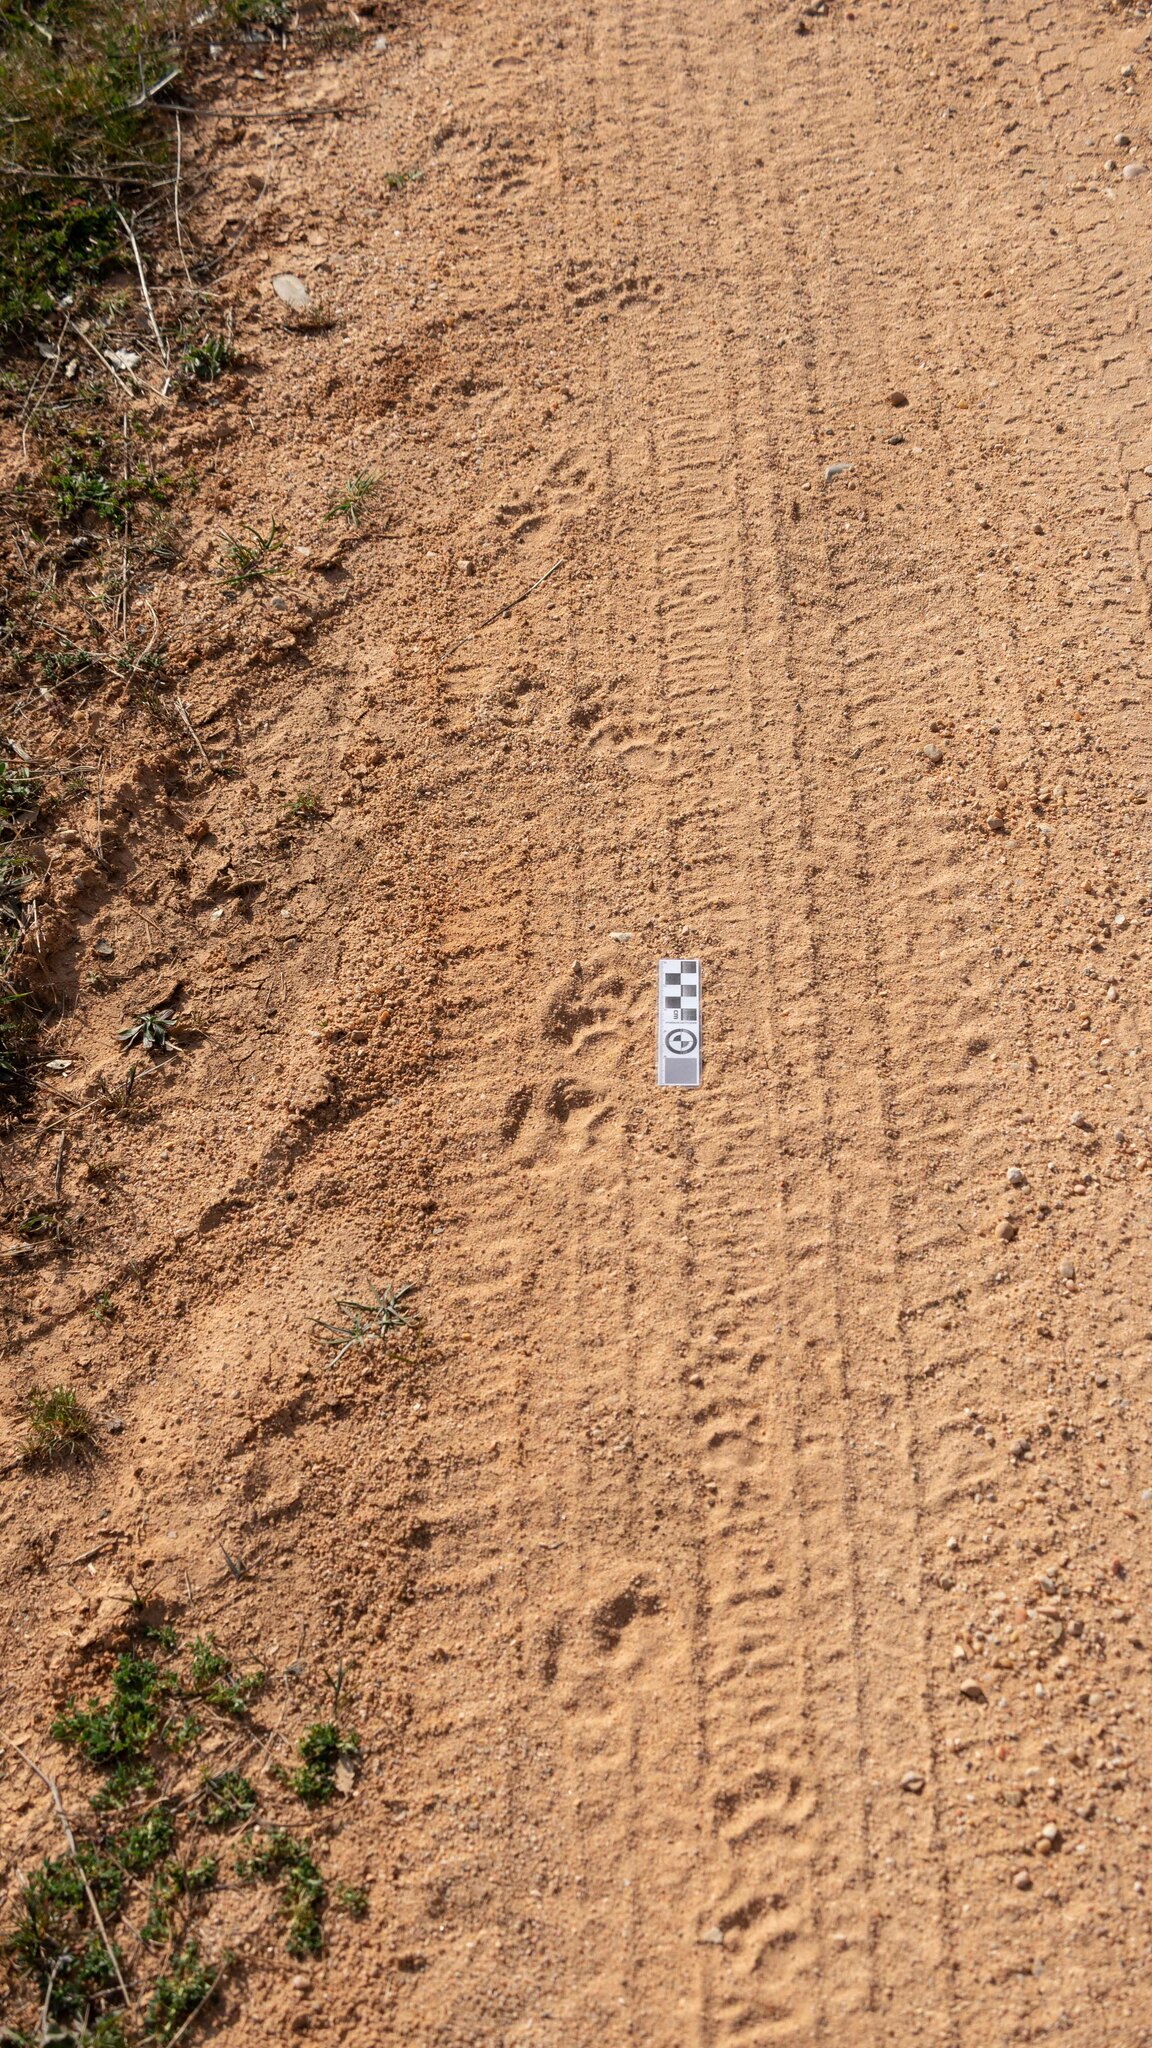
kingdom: Animalia
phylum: Chordata
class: Mammalia
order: Carnivora
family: Mustelidae
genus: Meles
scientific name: Meles meles
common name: Eurasian badger
